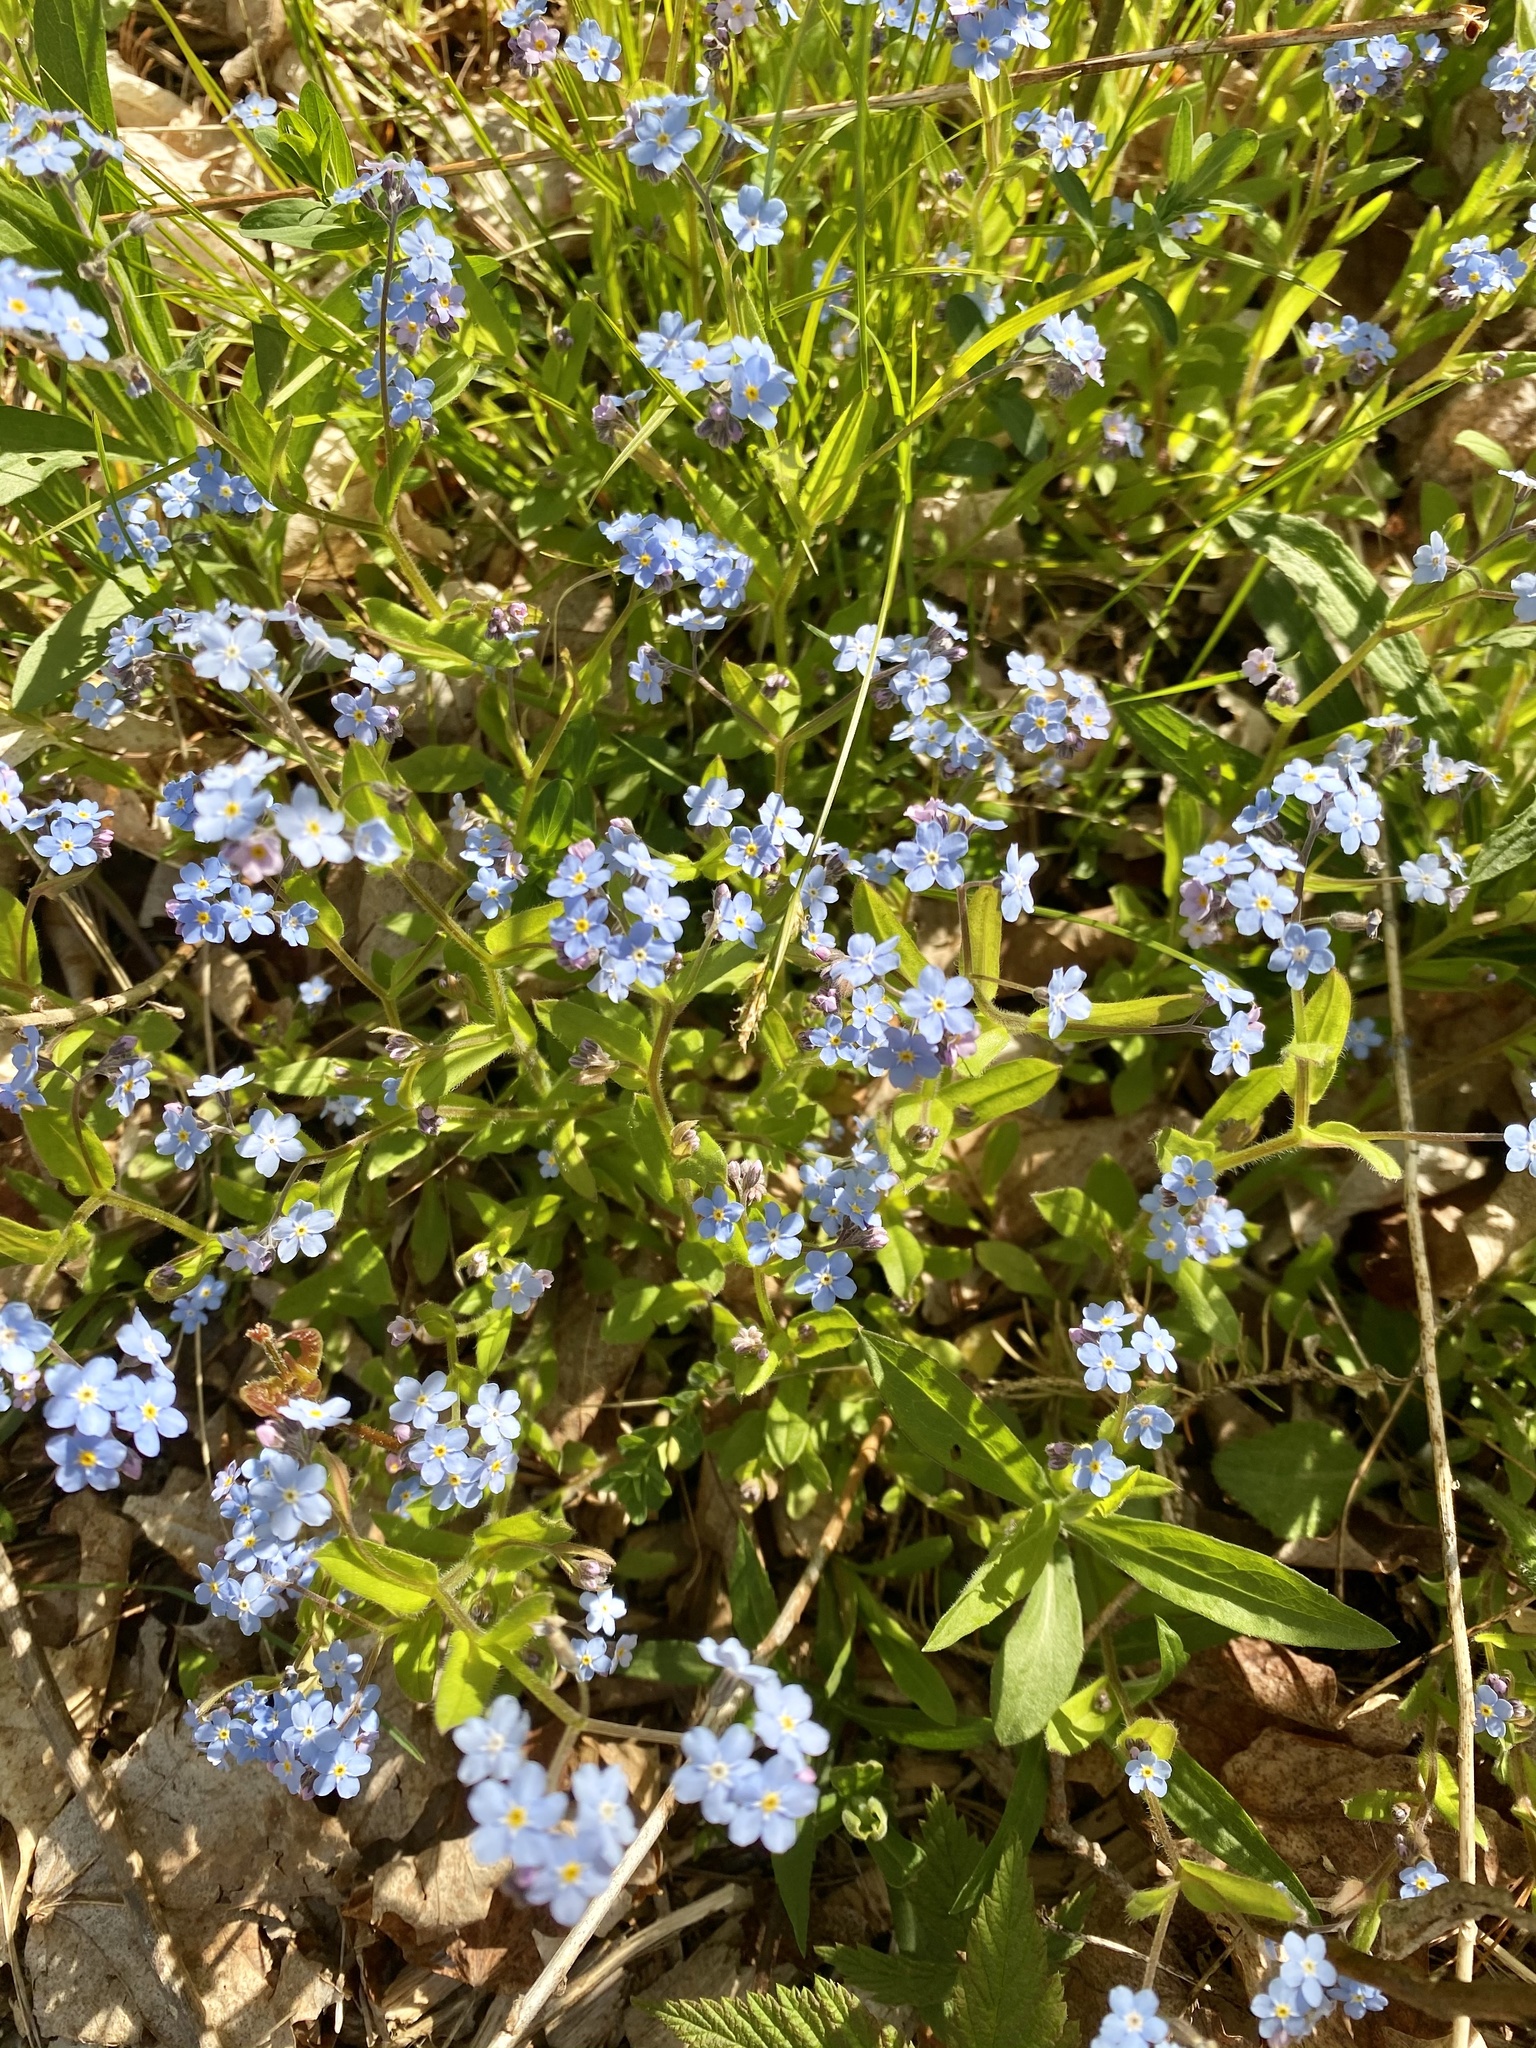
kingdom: Plantae
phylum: Tracheophyta
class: Magnoliopsida
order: Boraginales
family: Boraginaceae
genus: Myosotis
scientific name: Myosotis scorpioides
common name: Water forget-me-not
